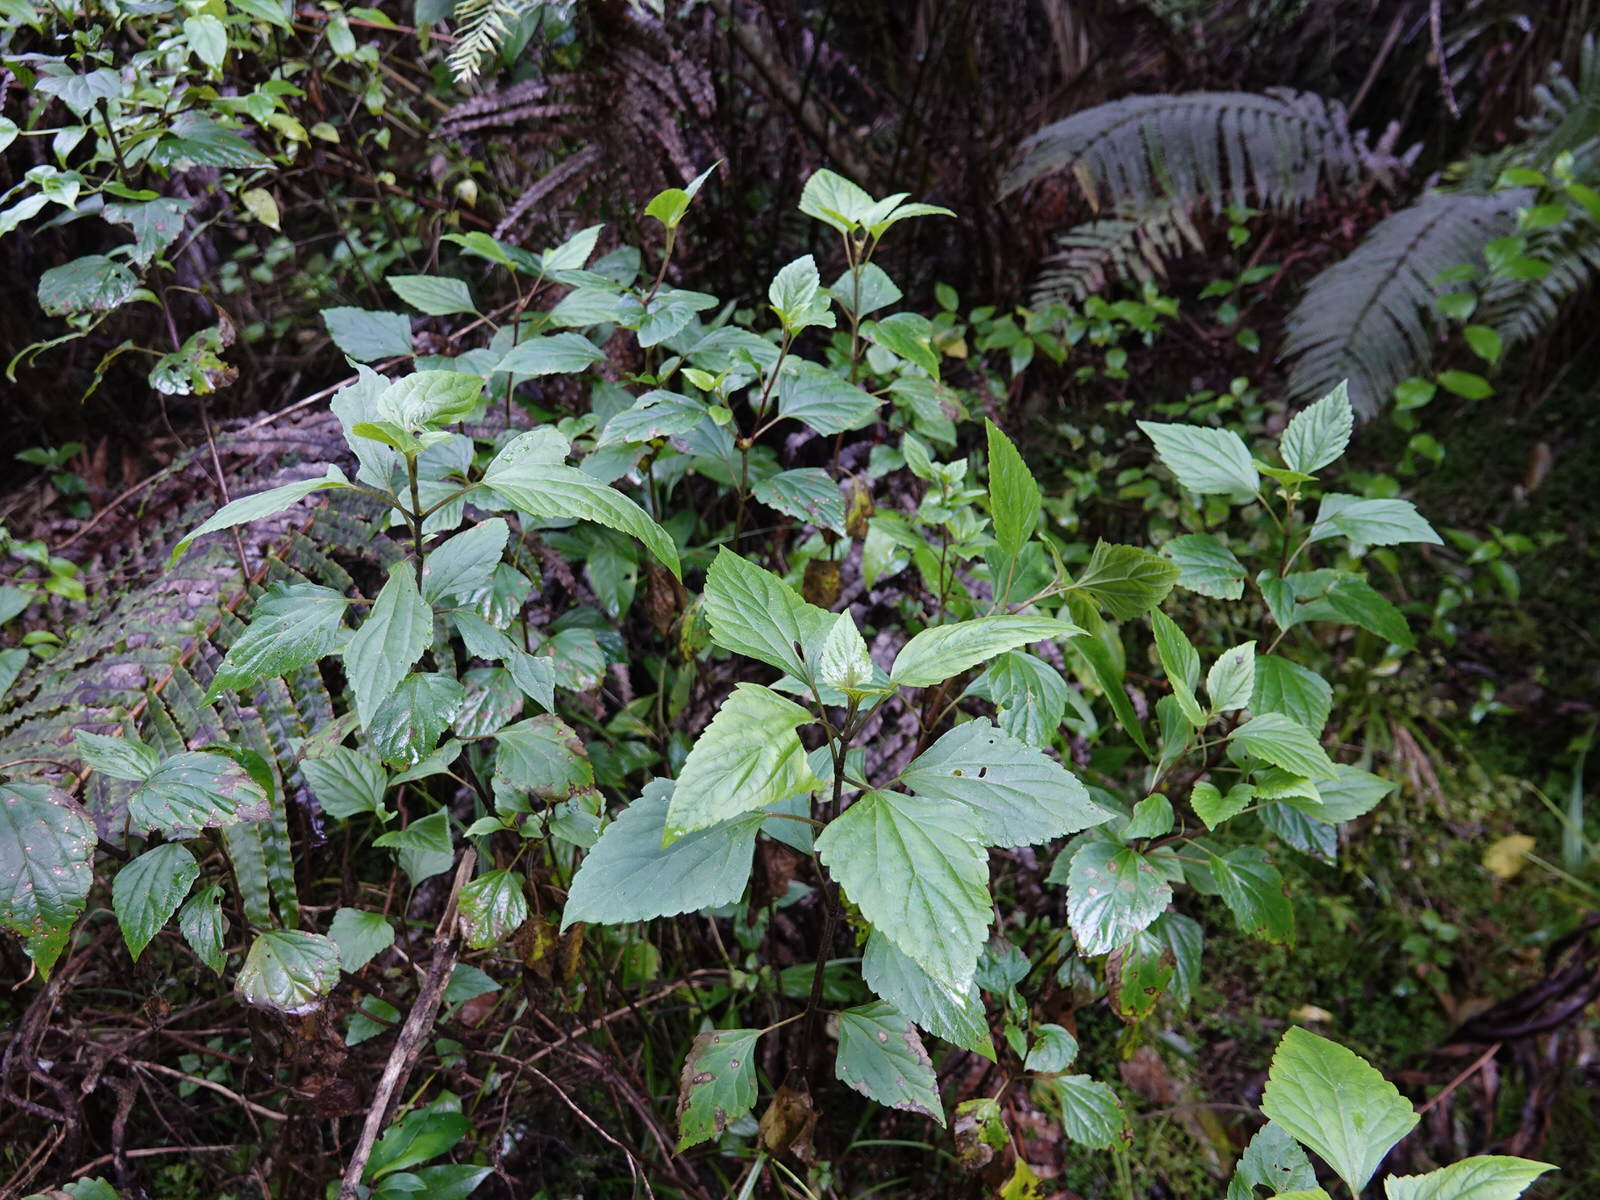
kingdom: Animalia
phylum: Arthropoda
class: Insecta
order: Diptera
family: Tephritidae
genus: Procecidochares
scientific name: Procecidochares utilis
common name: Eupatorium gall fly
